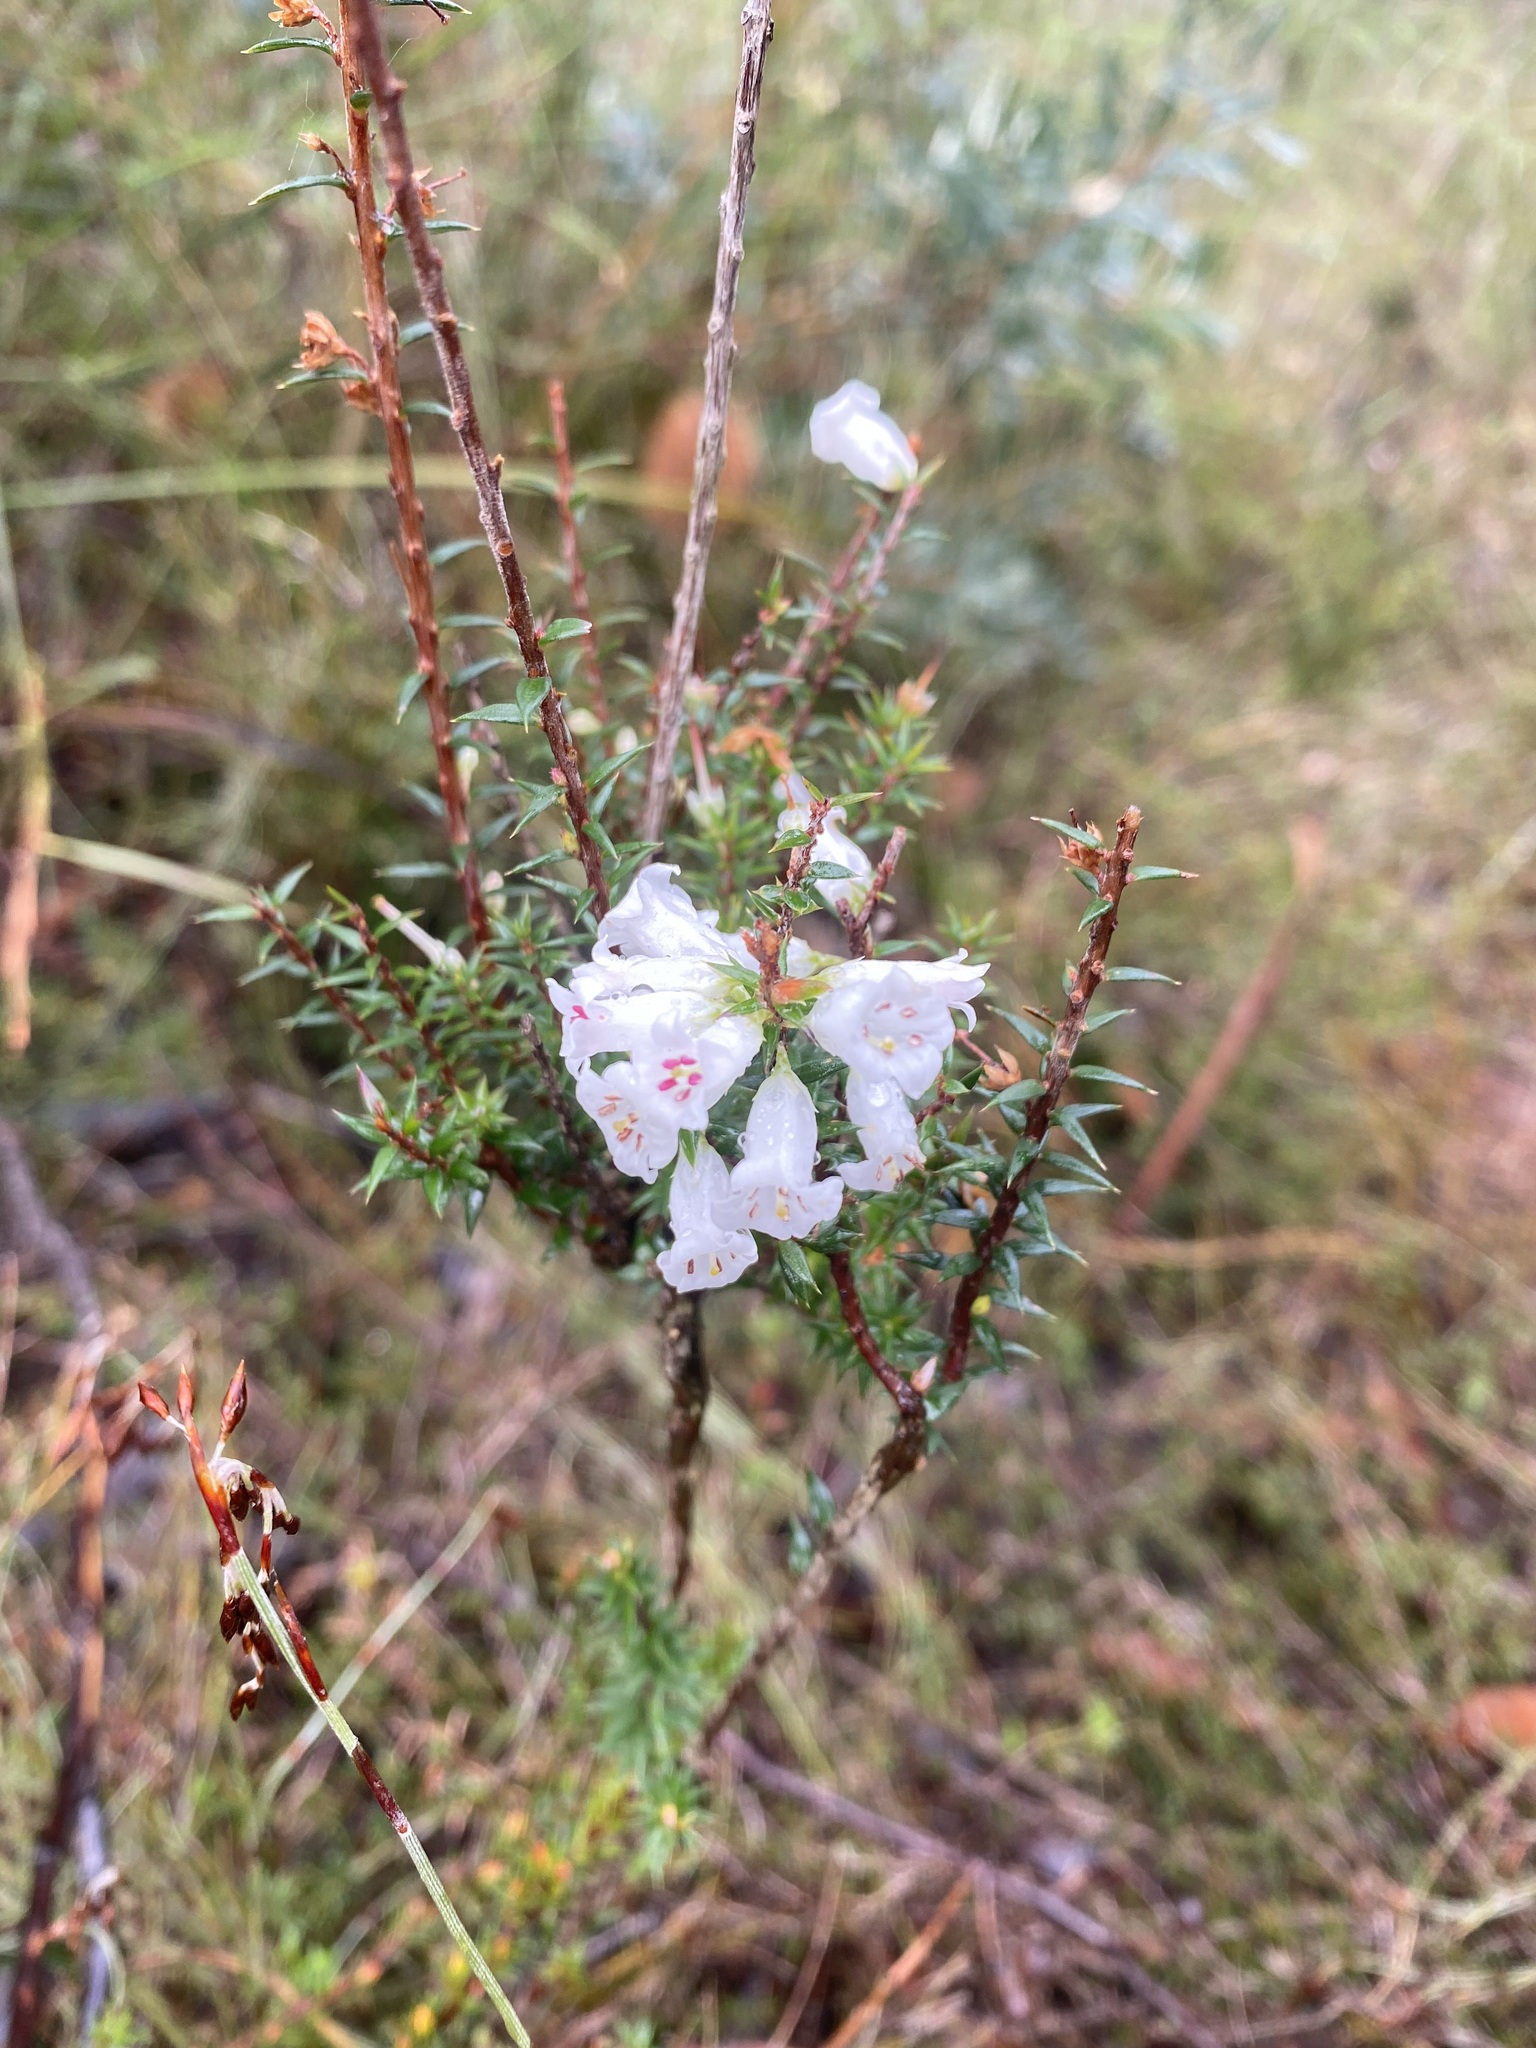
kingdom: Plantae
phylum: Tracheophyta
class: Magnoliopsida
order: Ericales
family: Ericaceae
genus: Epacris
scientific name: Epacris impressa
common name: Common-heath
